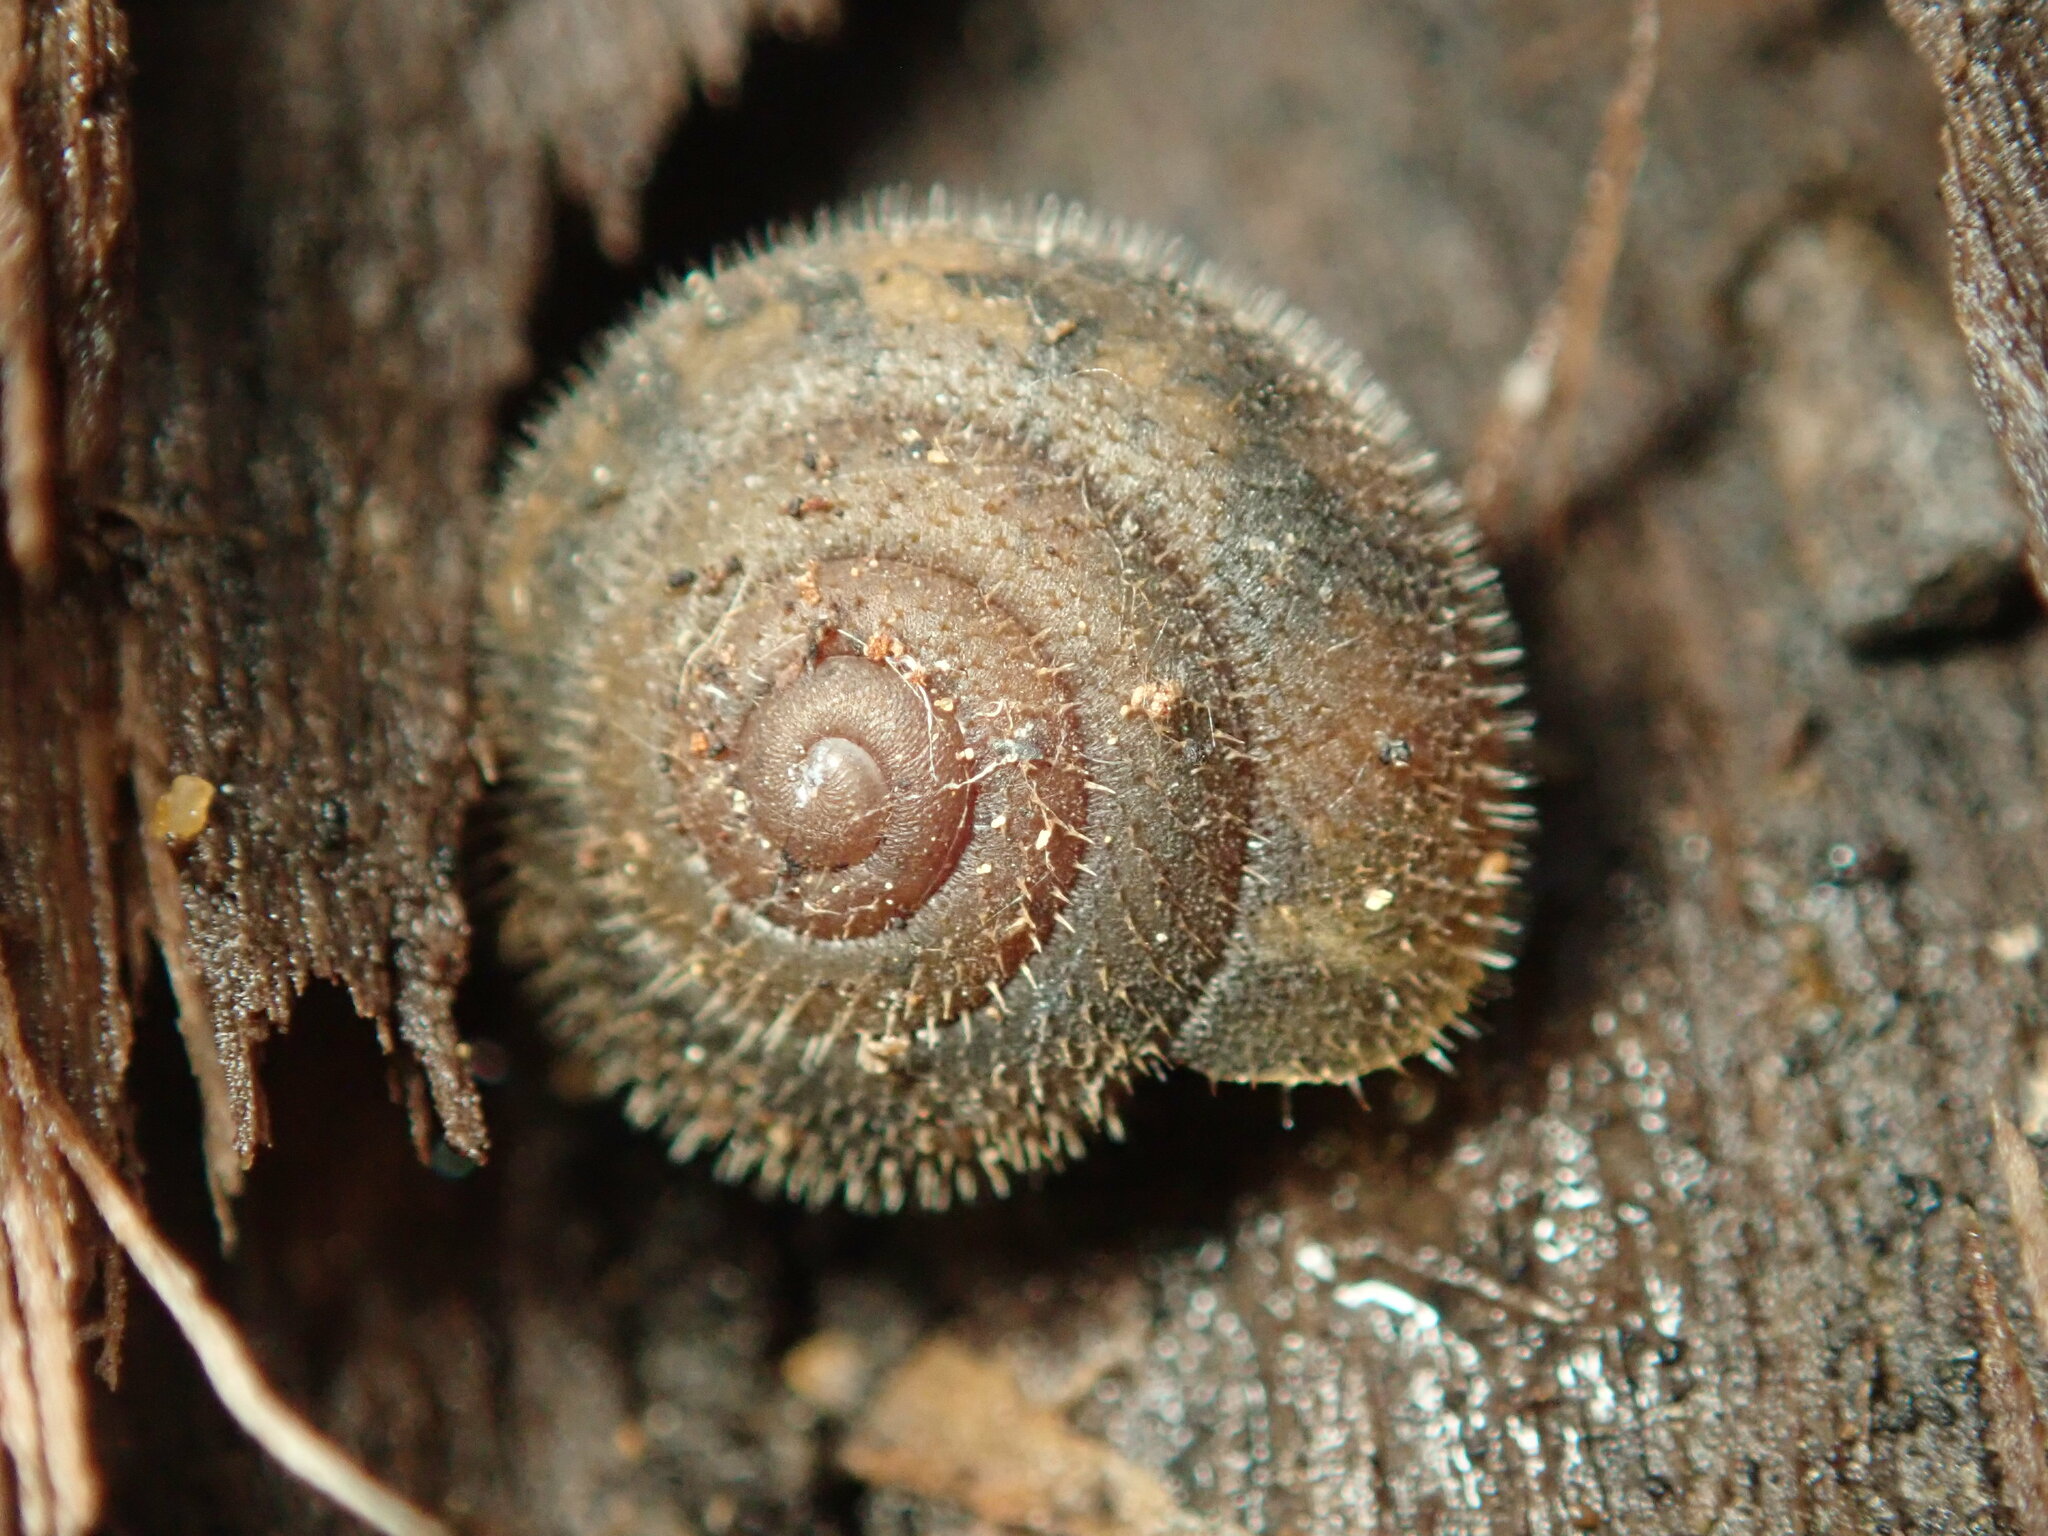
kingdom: Animalia
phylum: Mollusca
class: Gastropoda
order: Stylommatophora
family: Polygyridae
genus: Vespericola
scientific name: Vespericola pilosus
